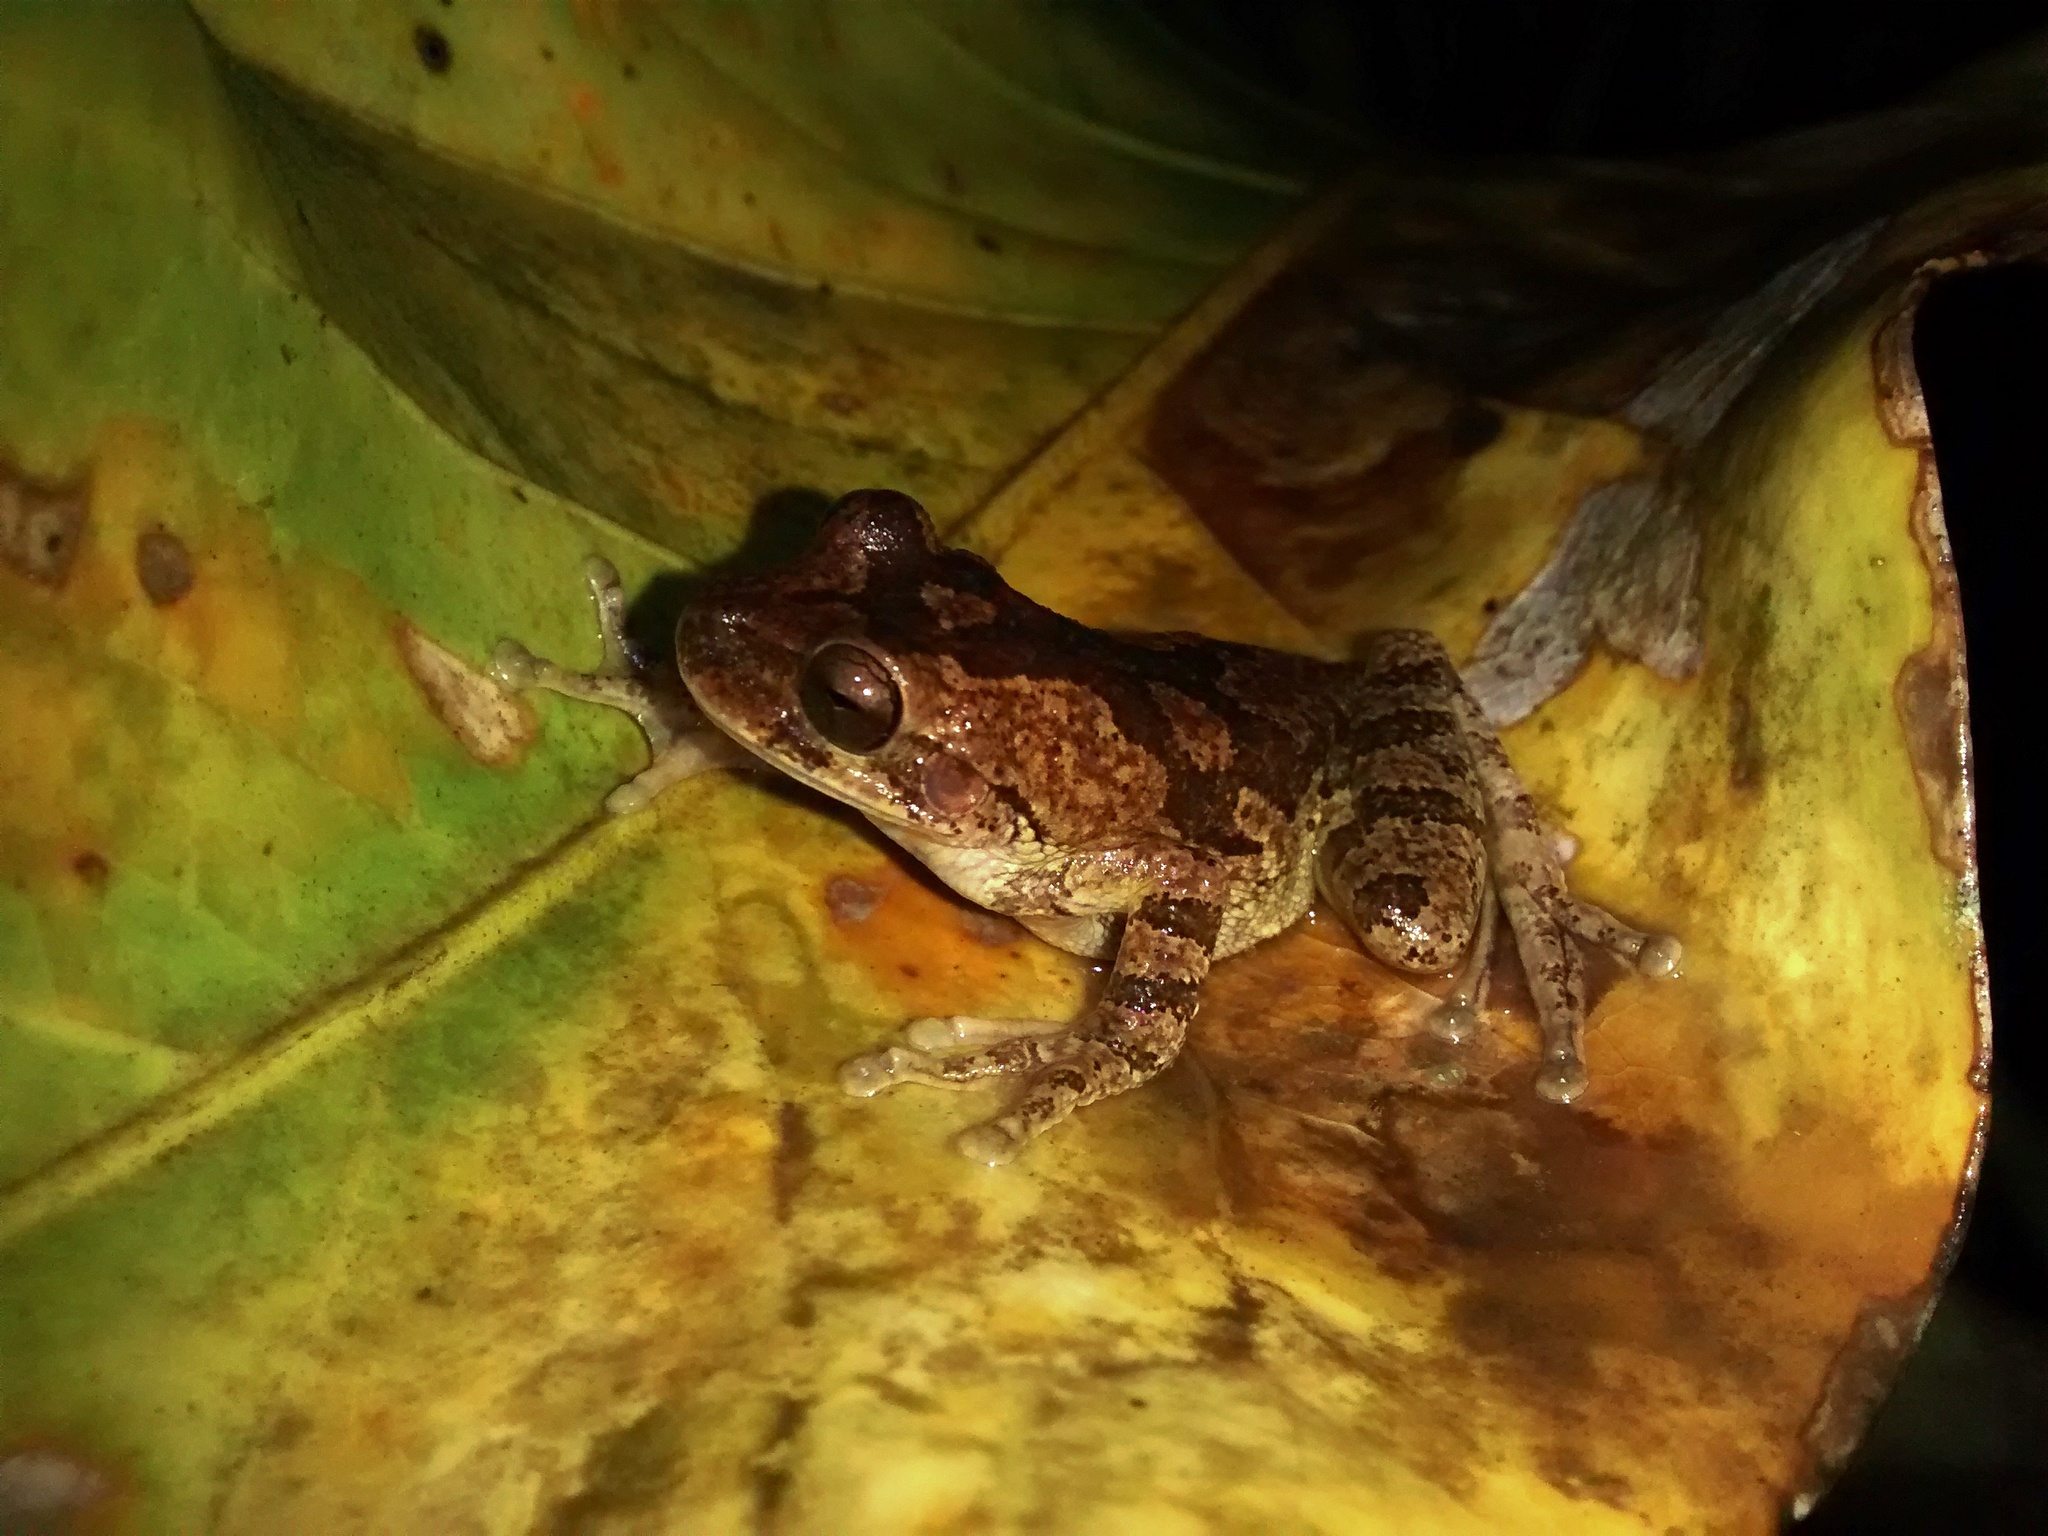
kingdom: Animalia
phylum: Chordata
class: Amphibia
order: Anura
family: Hylidae
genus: Smilisca
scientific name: Smilisca baudinii
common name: Mexican smilisca
